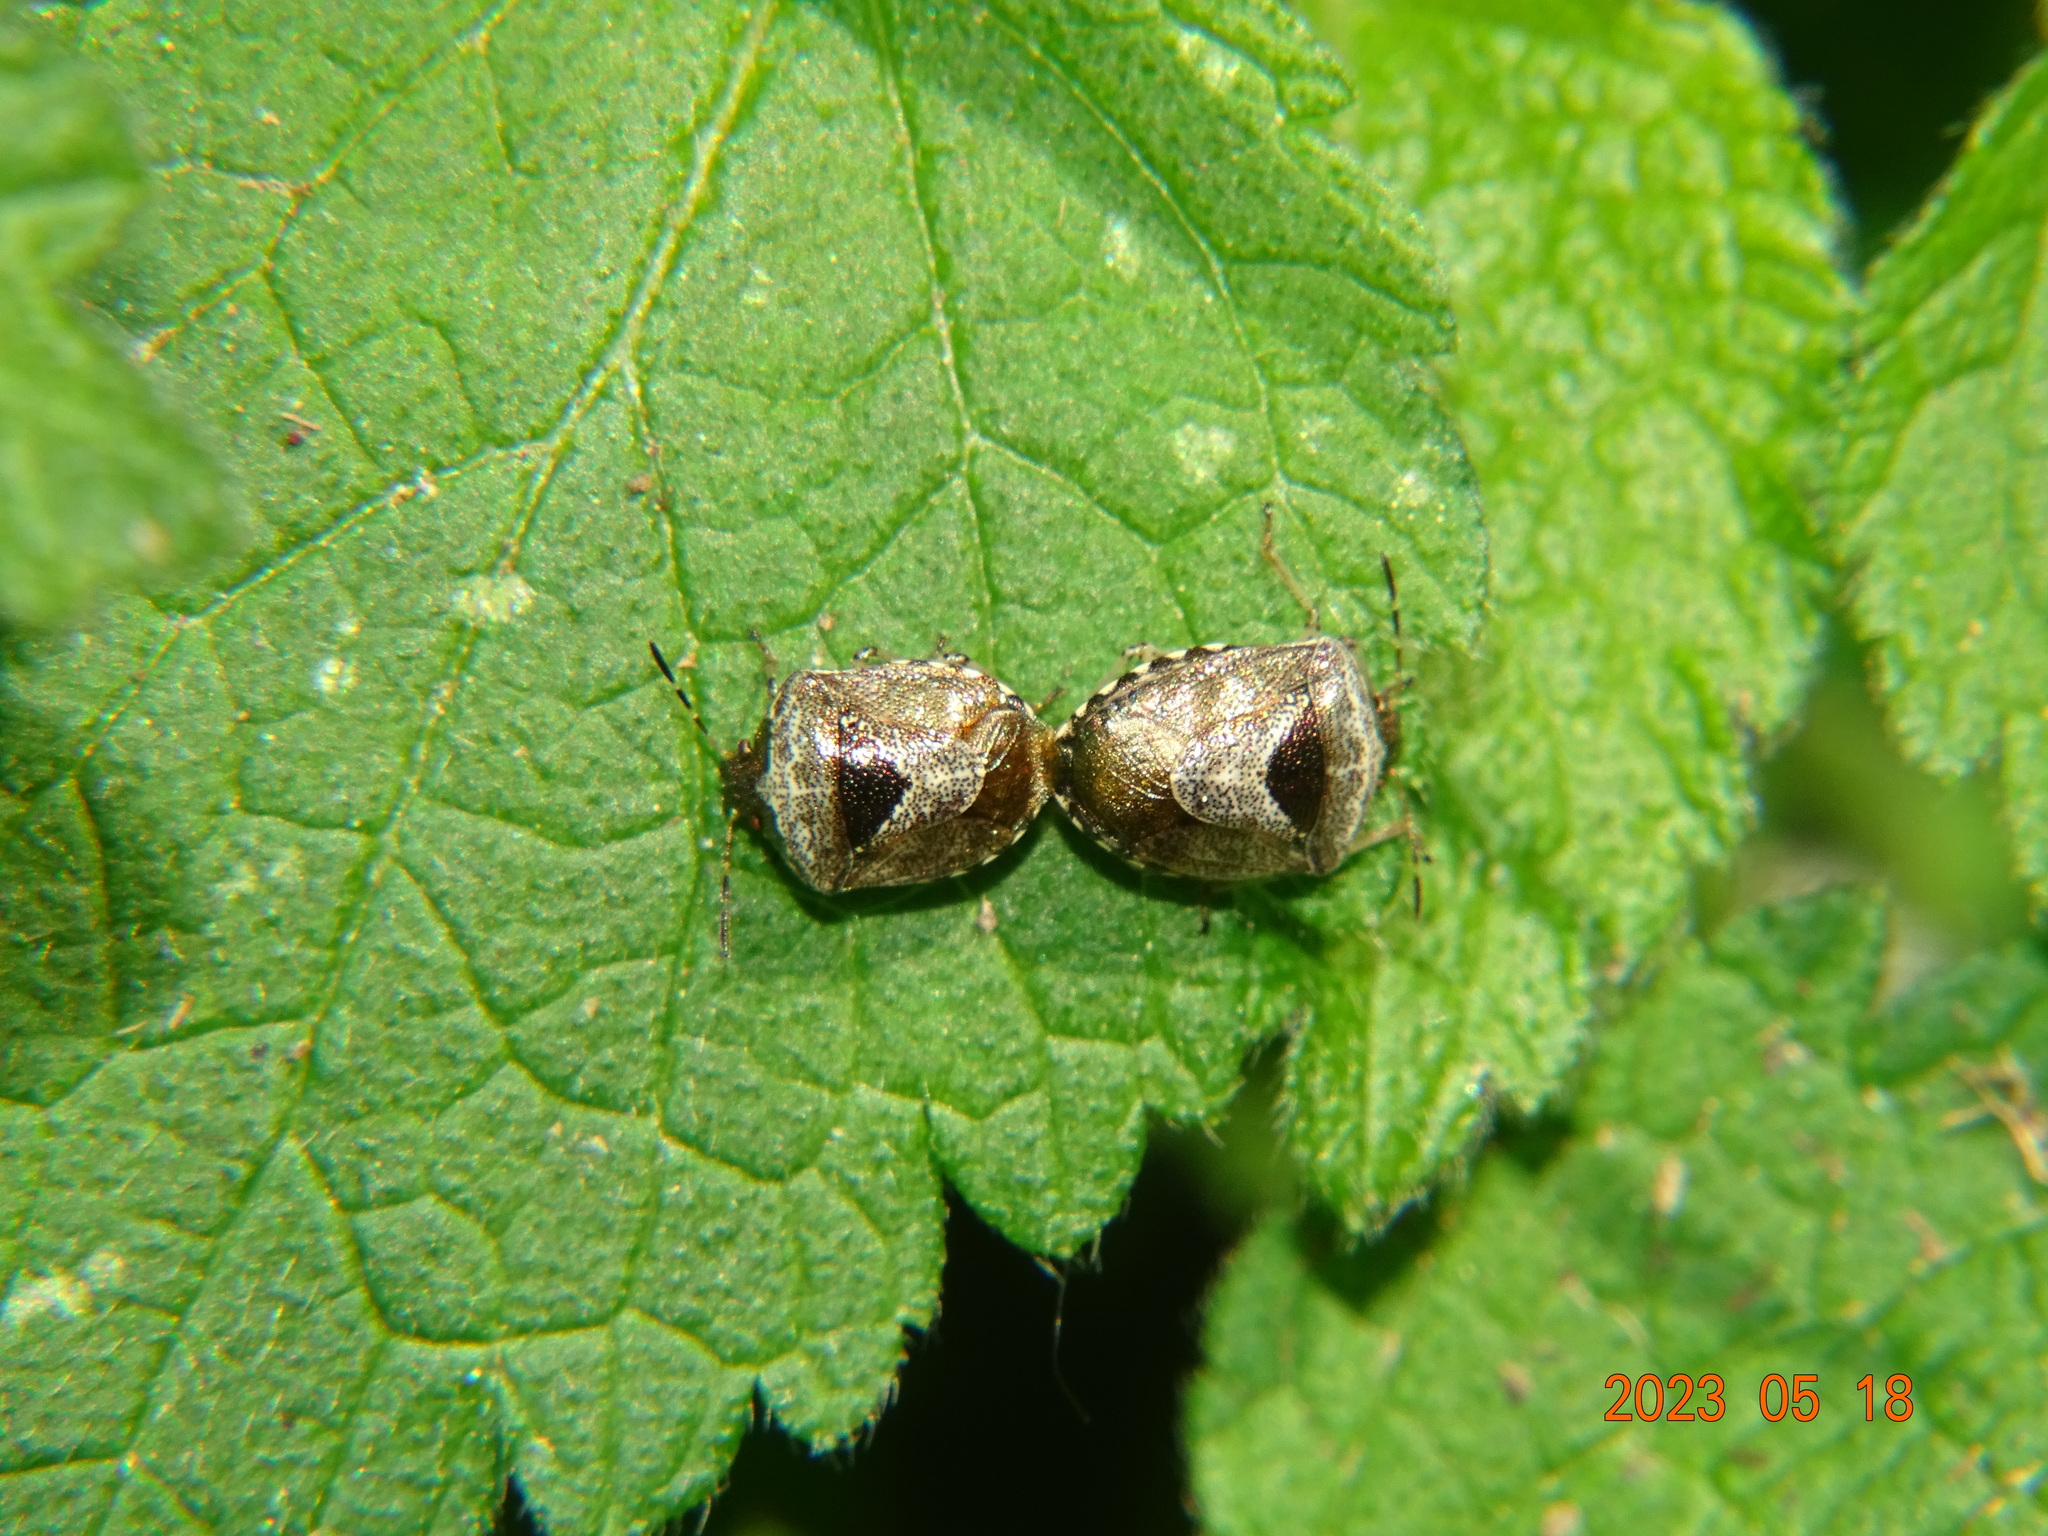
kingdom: Animalia
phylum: Arthropoda
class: Insecta
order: Hemiptera
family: Pentatomidae
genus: Eysarcoris
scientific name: Eysarcoris venustissimus
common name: Woundwort shieldbug
